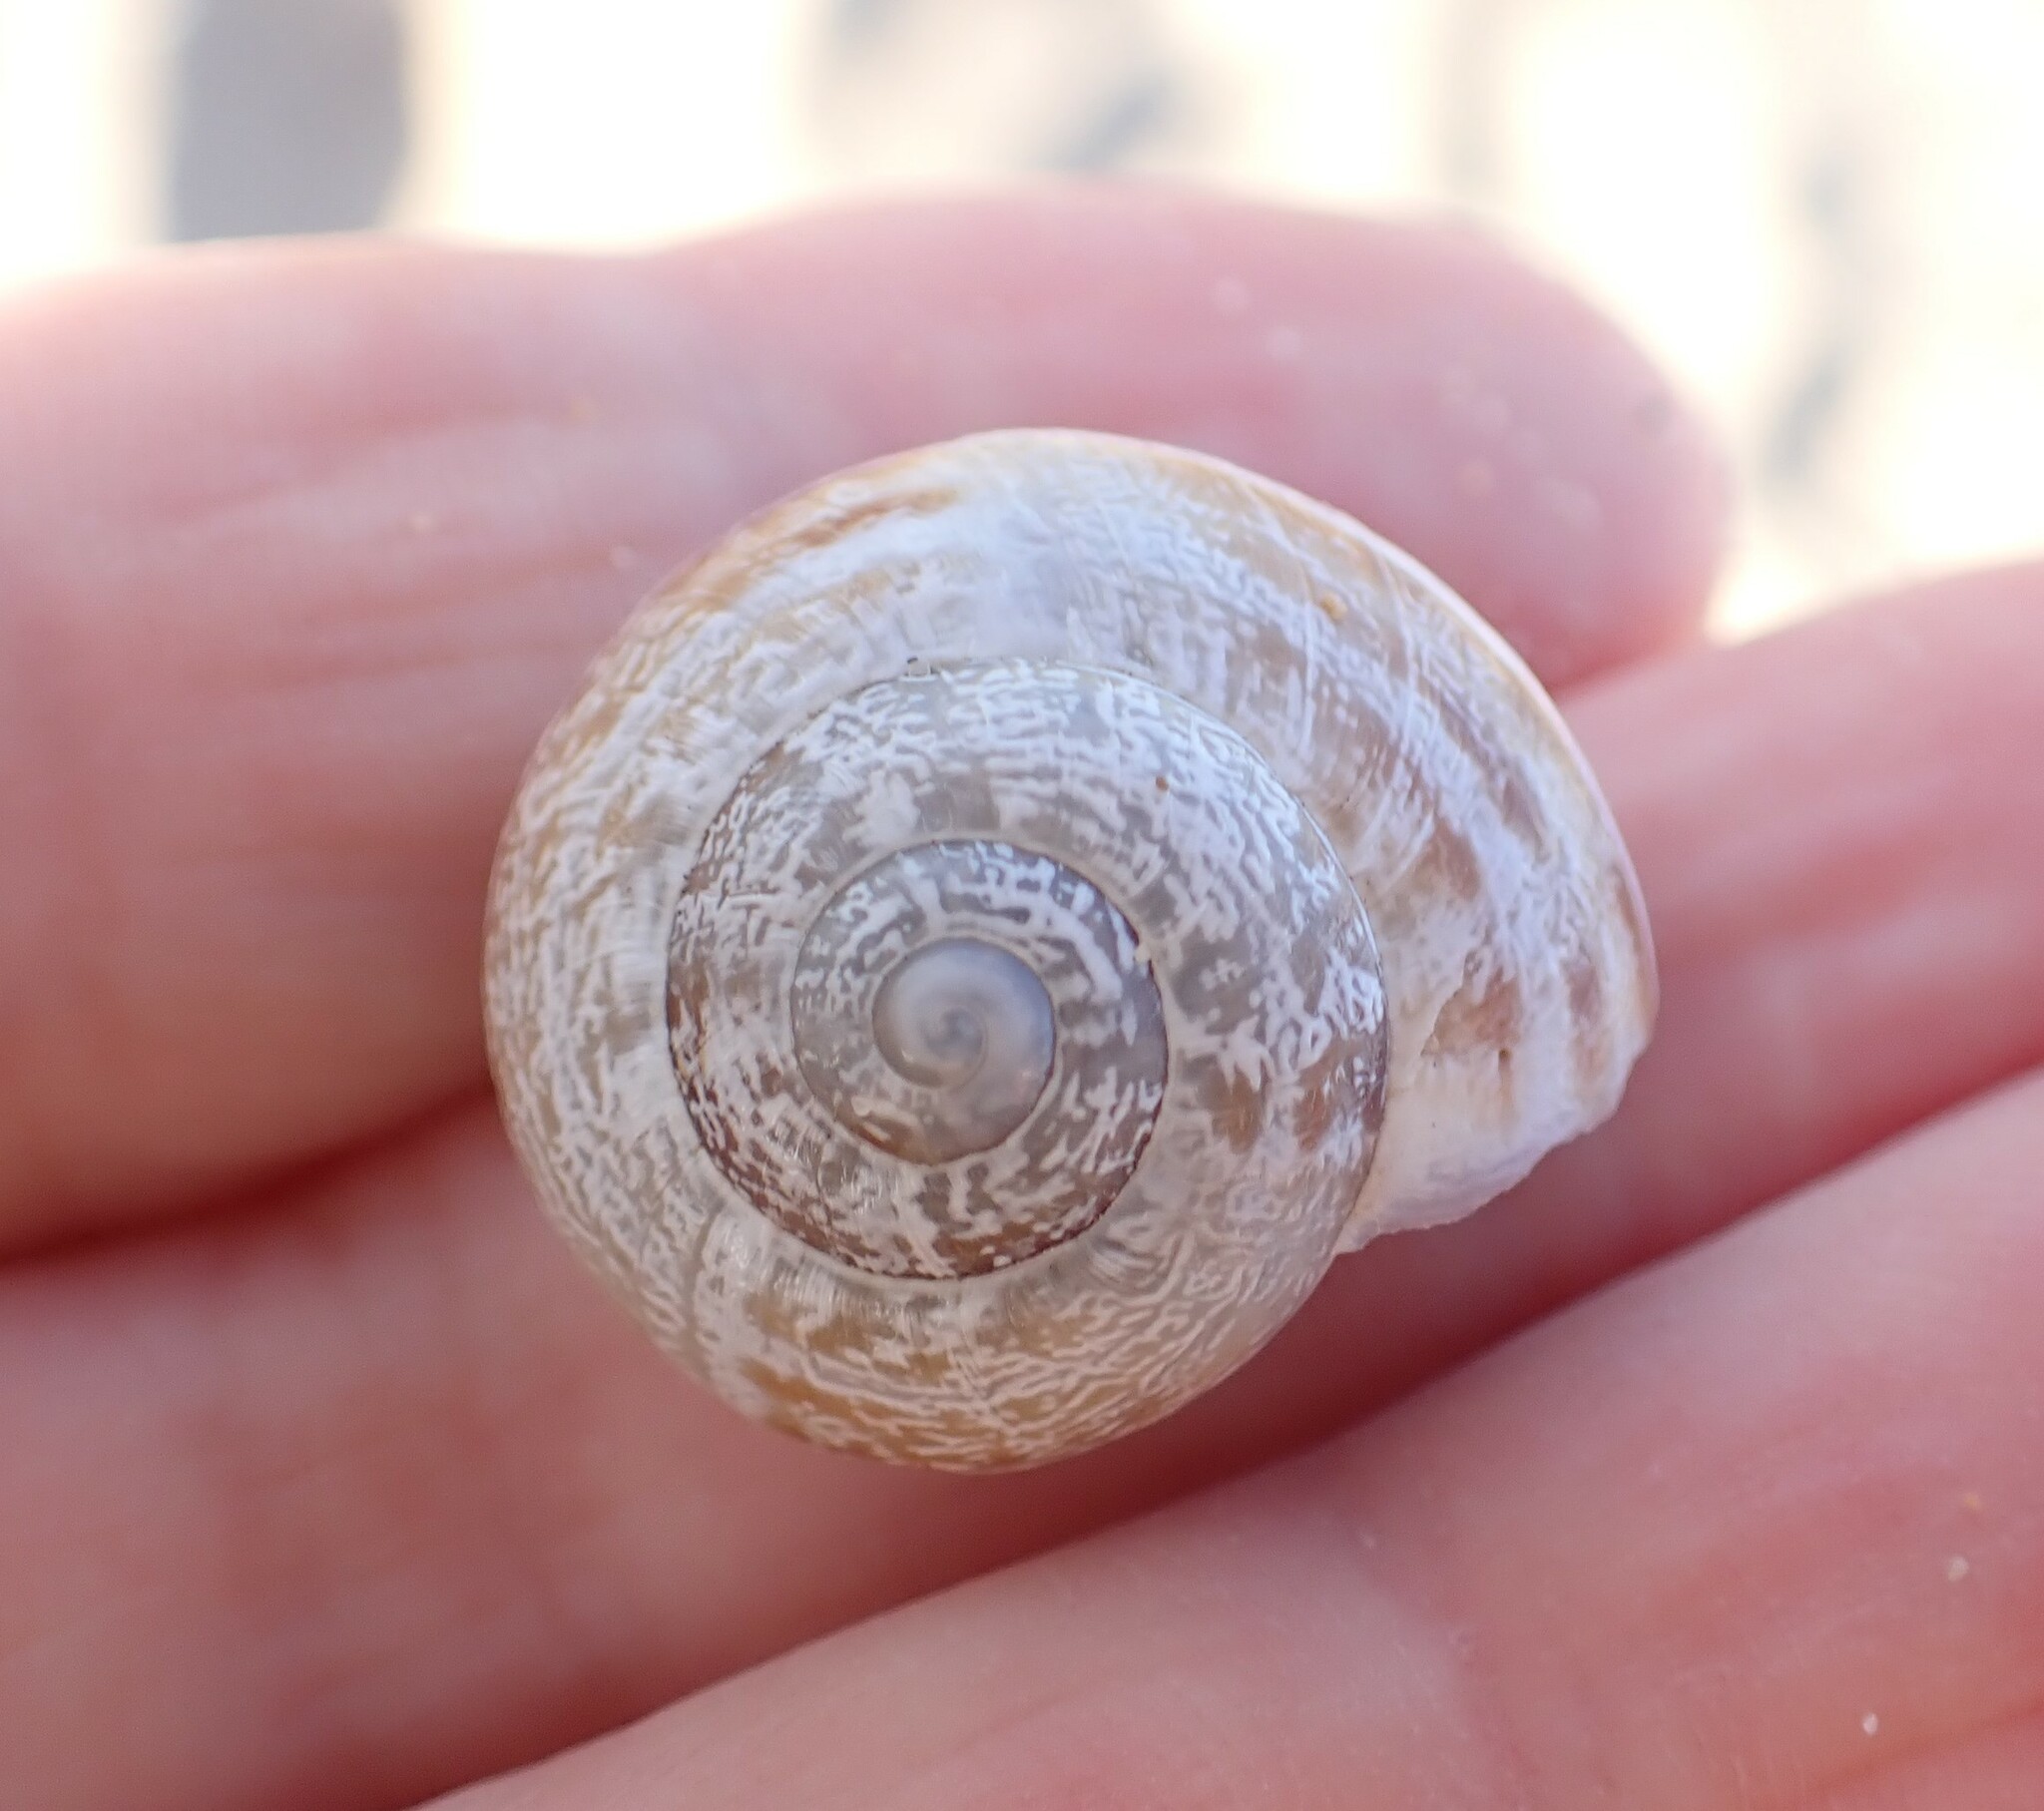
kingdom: Animalia
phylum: Mollusca
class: Gastropoda
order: Stylommatophora
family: Helicidae
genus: Eobania
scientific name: Eobania vermiculata
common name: Chocolateband snail
